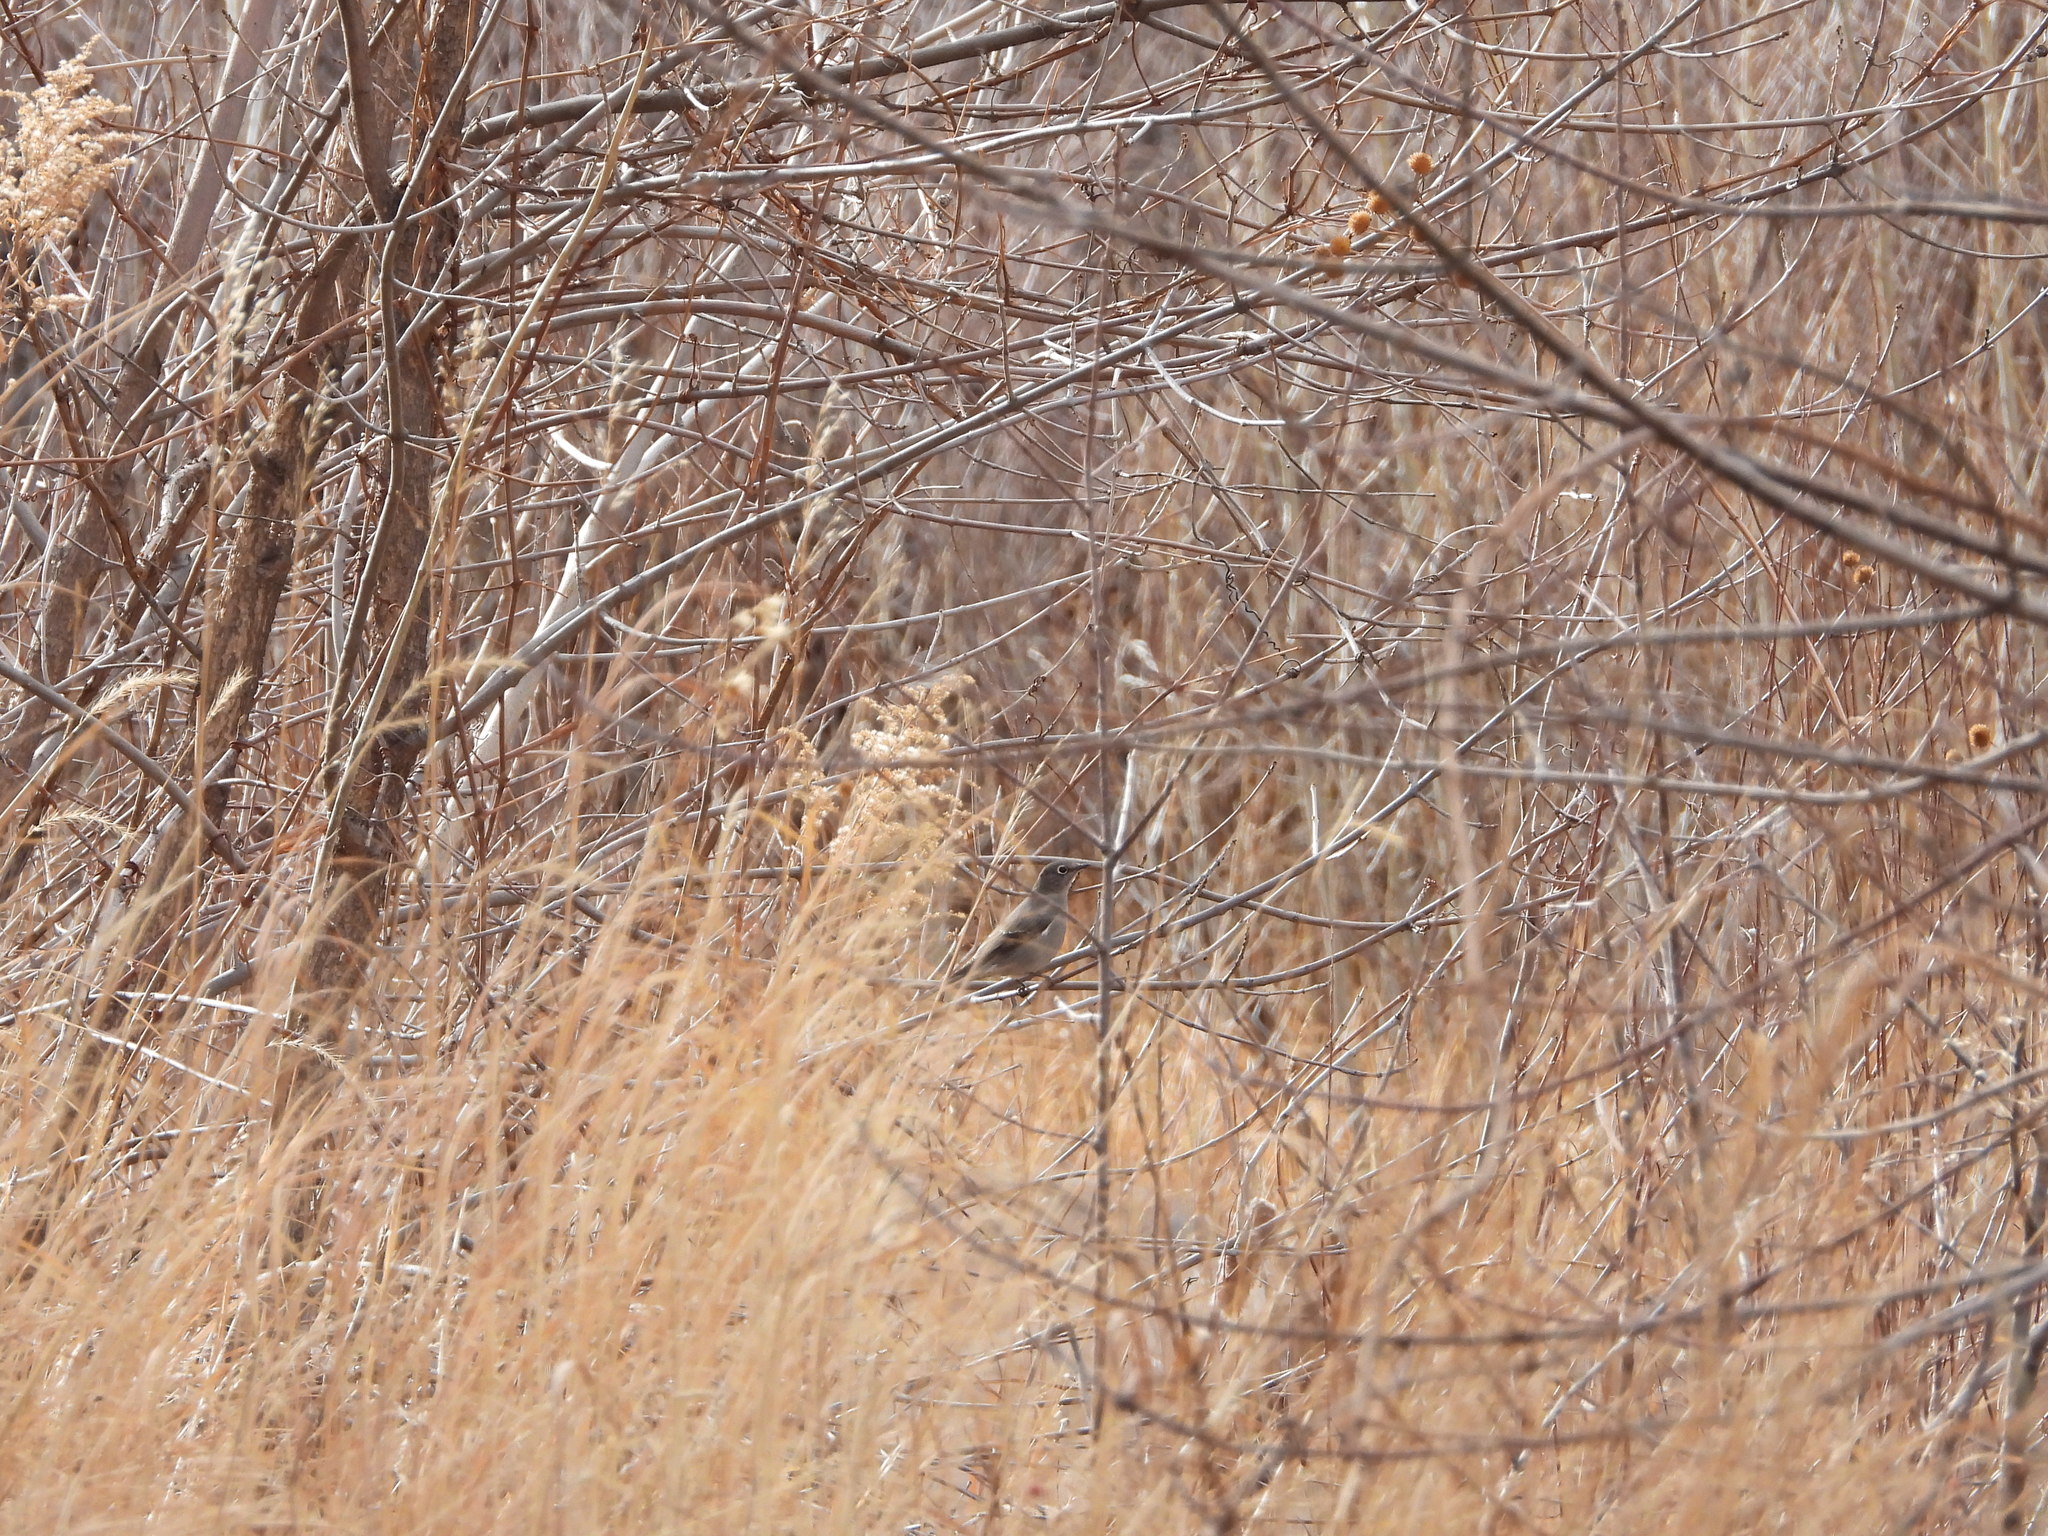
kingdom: Animalia
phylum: Chordata
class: Aves
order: Passeriformes
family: Turdidae
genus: Myadestes
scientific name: Myadestes townsendi
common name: Townsend's solitaire
